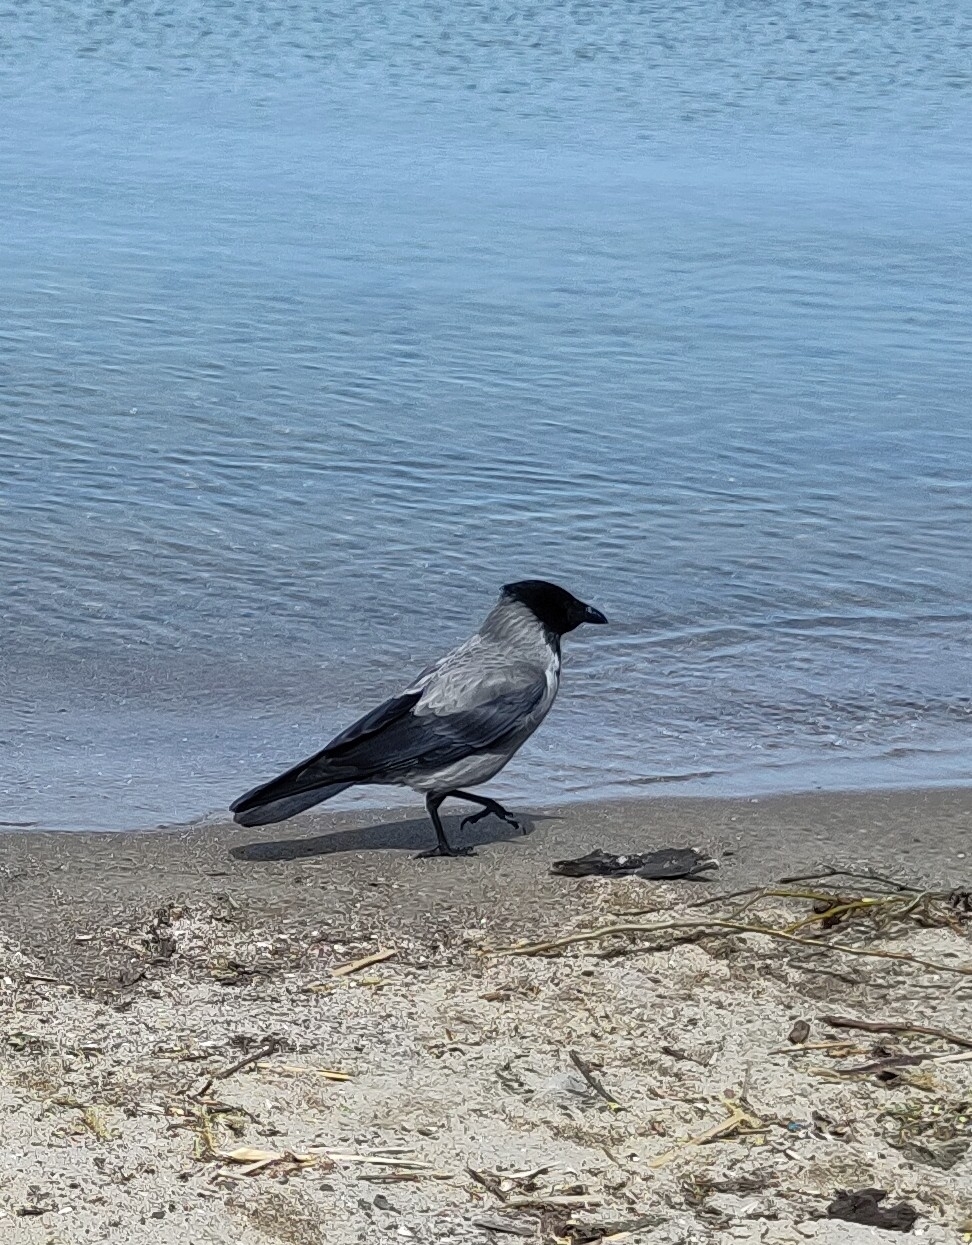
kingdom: Animalia
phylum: Chordata
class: Aves
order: Passeriformes
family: Corvidae
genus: Corvus
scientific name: Corvus cornix
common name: Hooded crow
